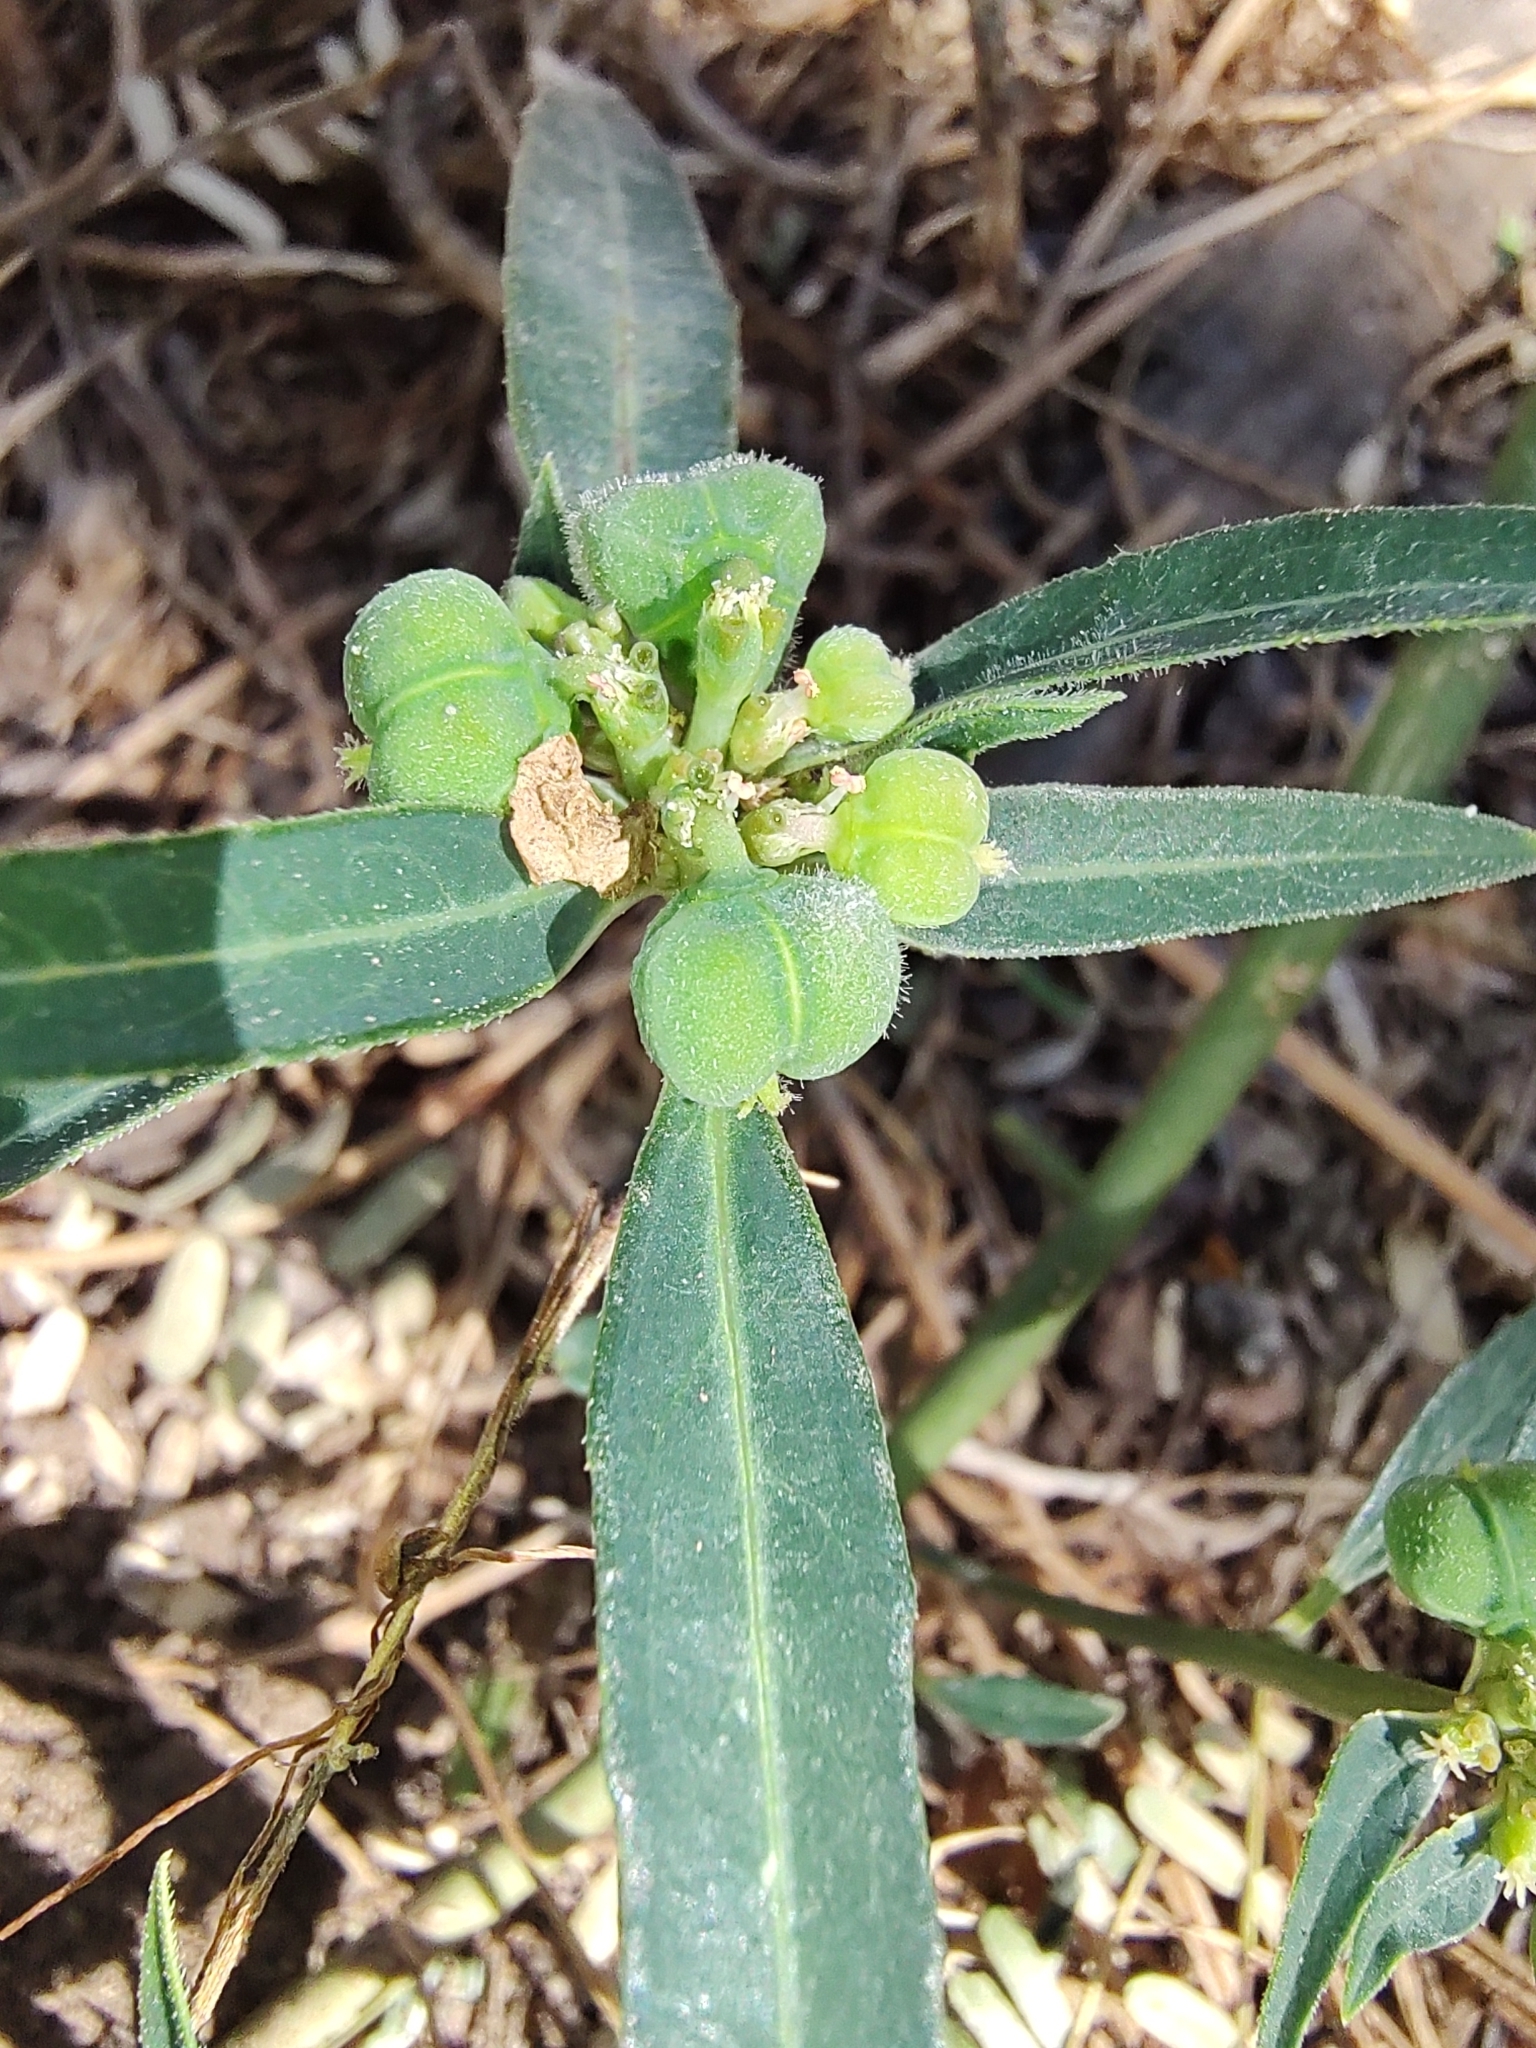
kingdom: Plantae
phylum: Tracheophyta
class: Magnoliopsida
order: Malpighiales
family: Euphorbiaceae
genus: Euphorbia
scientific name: Euphorbia heterophylla
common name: Mexican fireplant
